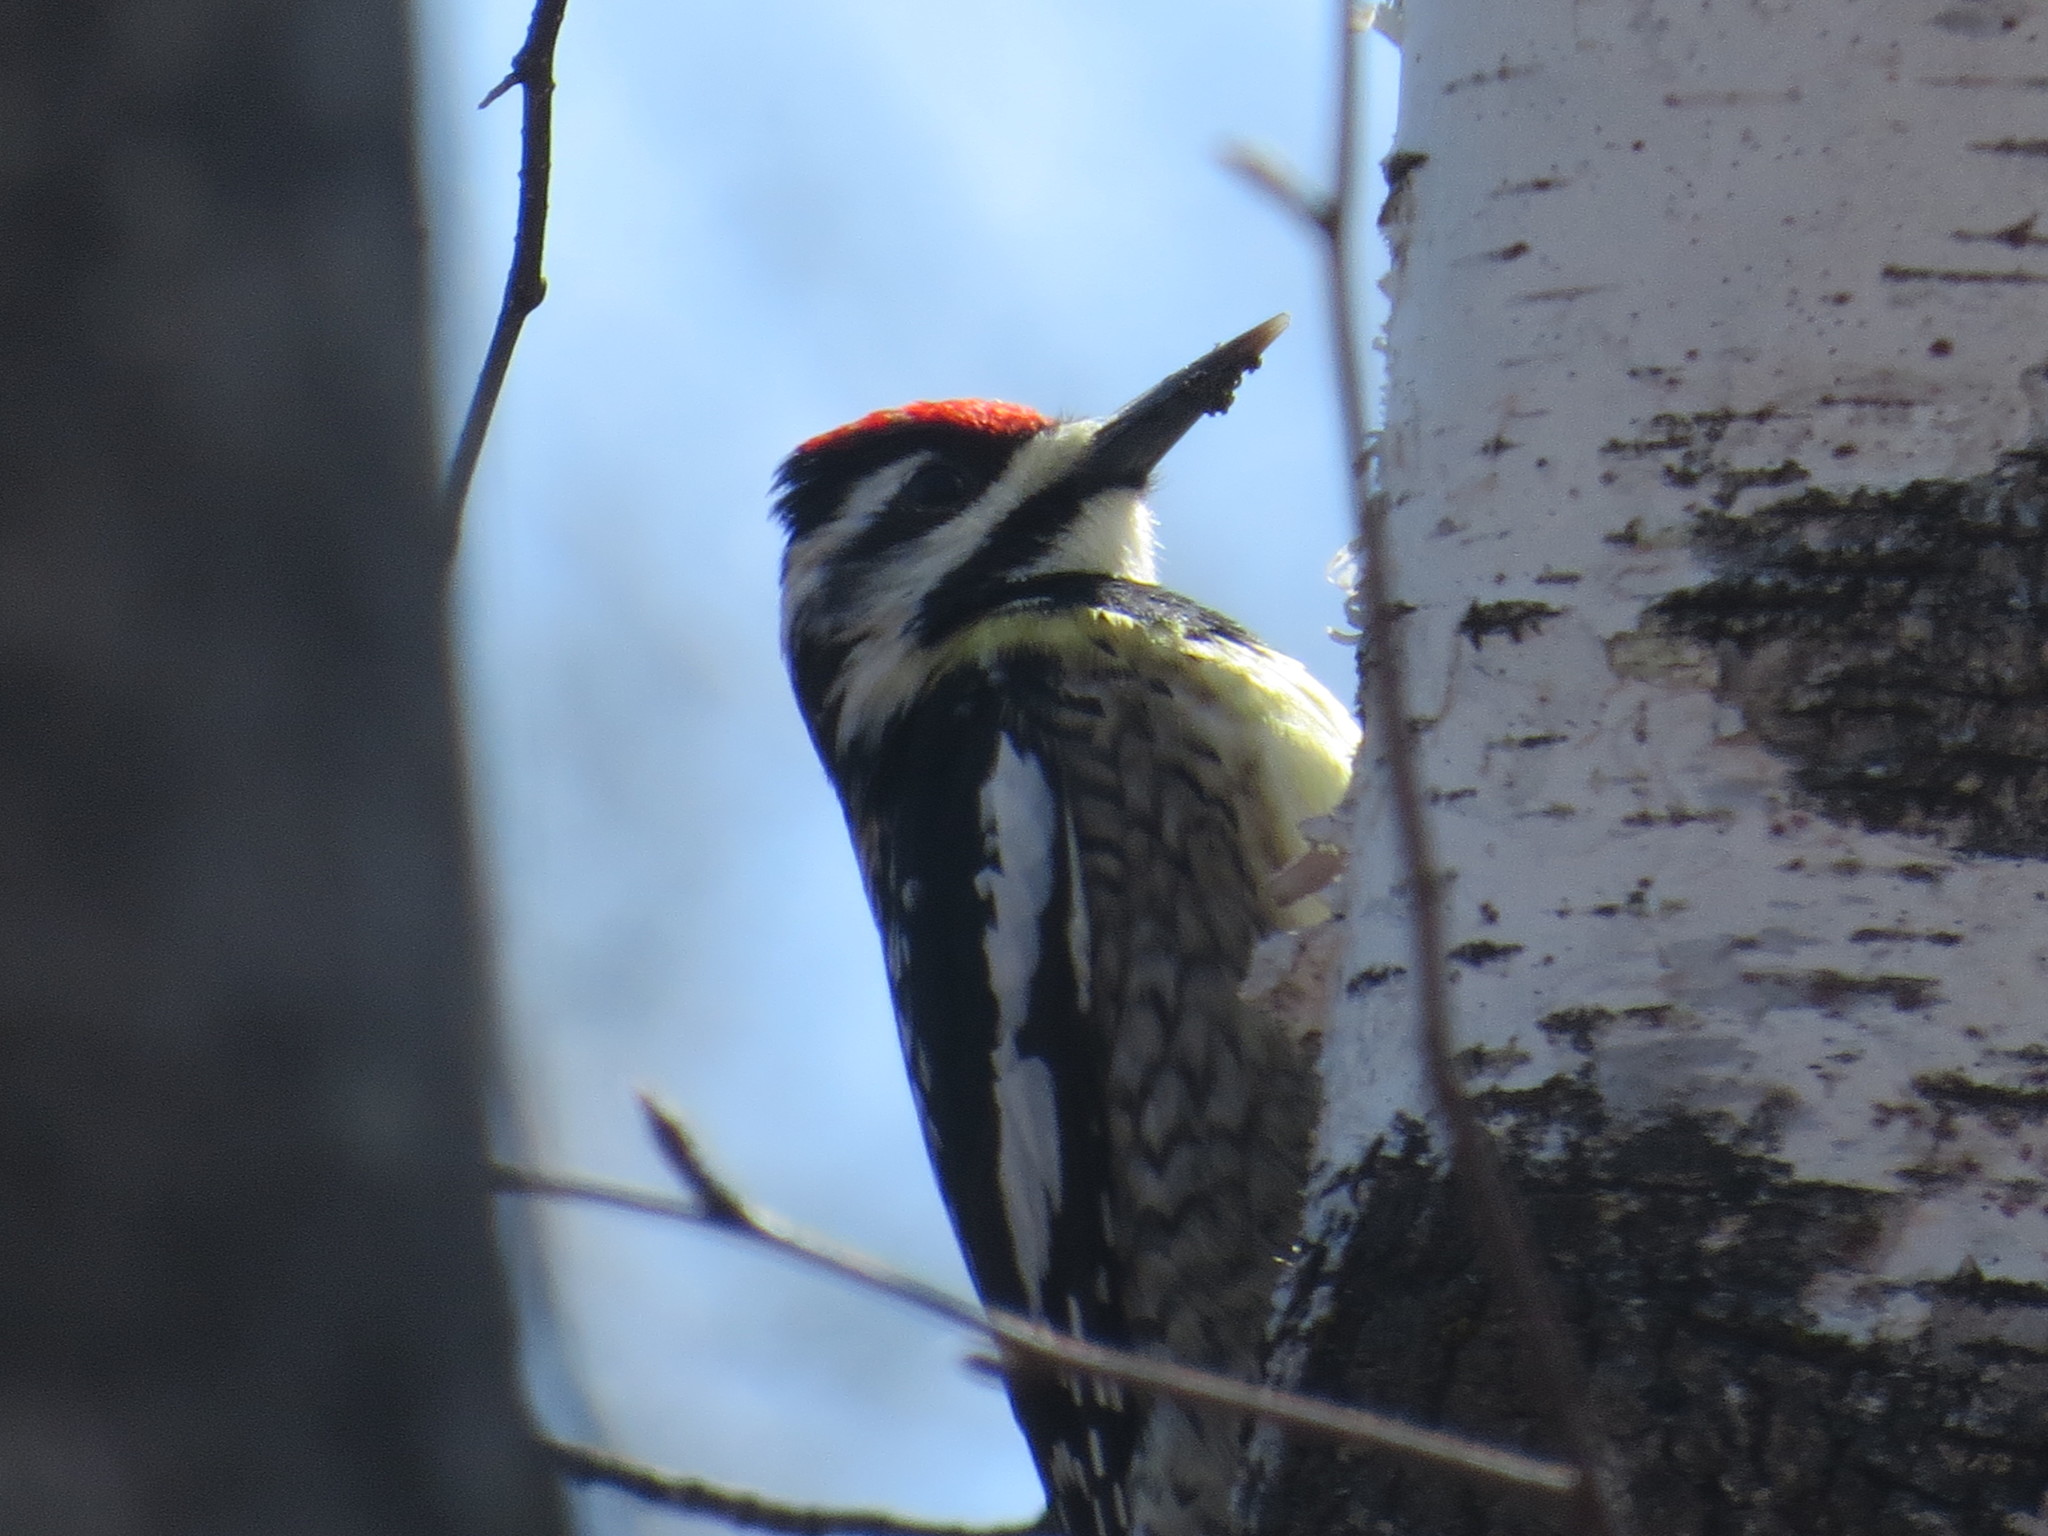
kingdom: Animalia
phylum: Chordata
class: Aves
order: Piciformes
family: Picidae
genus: Sphyrapicus
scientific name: Sphyrapicus varius
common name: Yellow-bellied sapsucker
